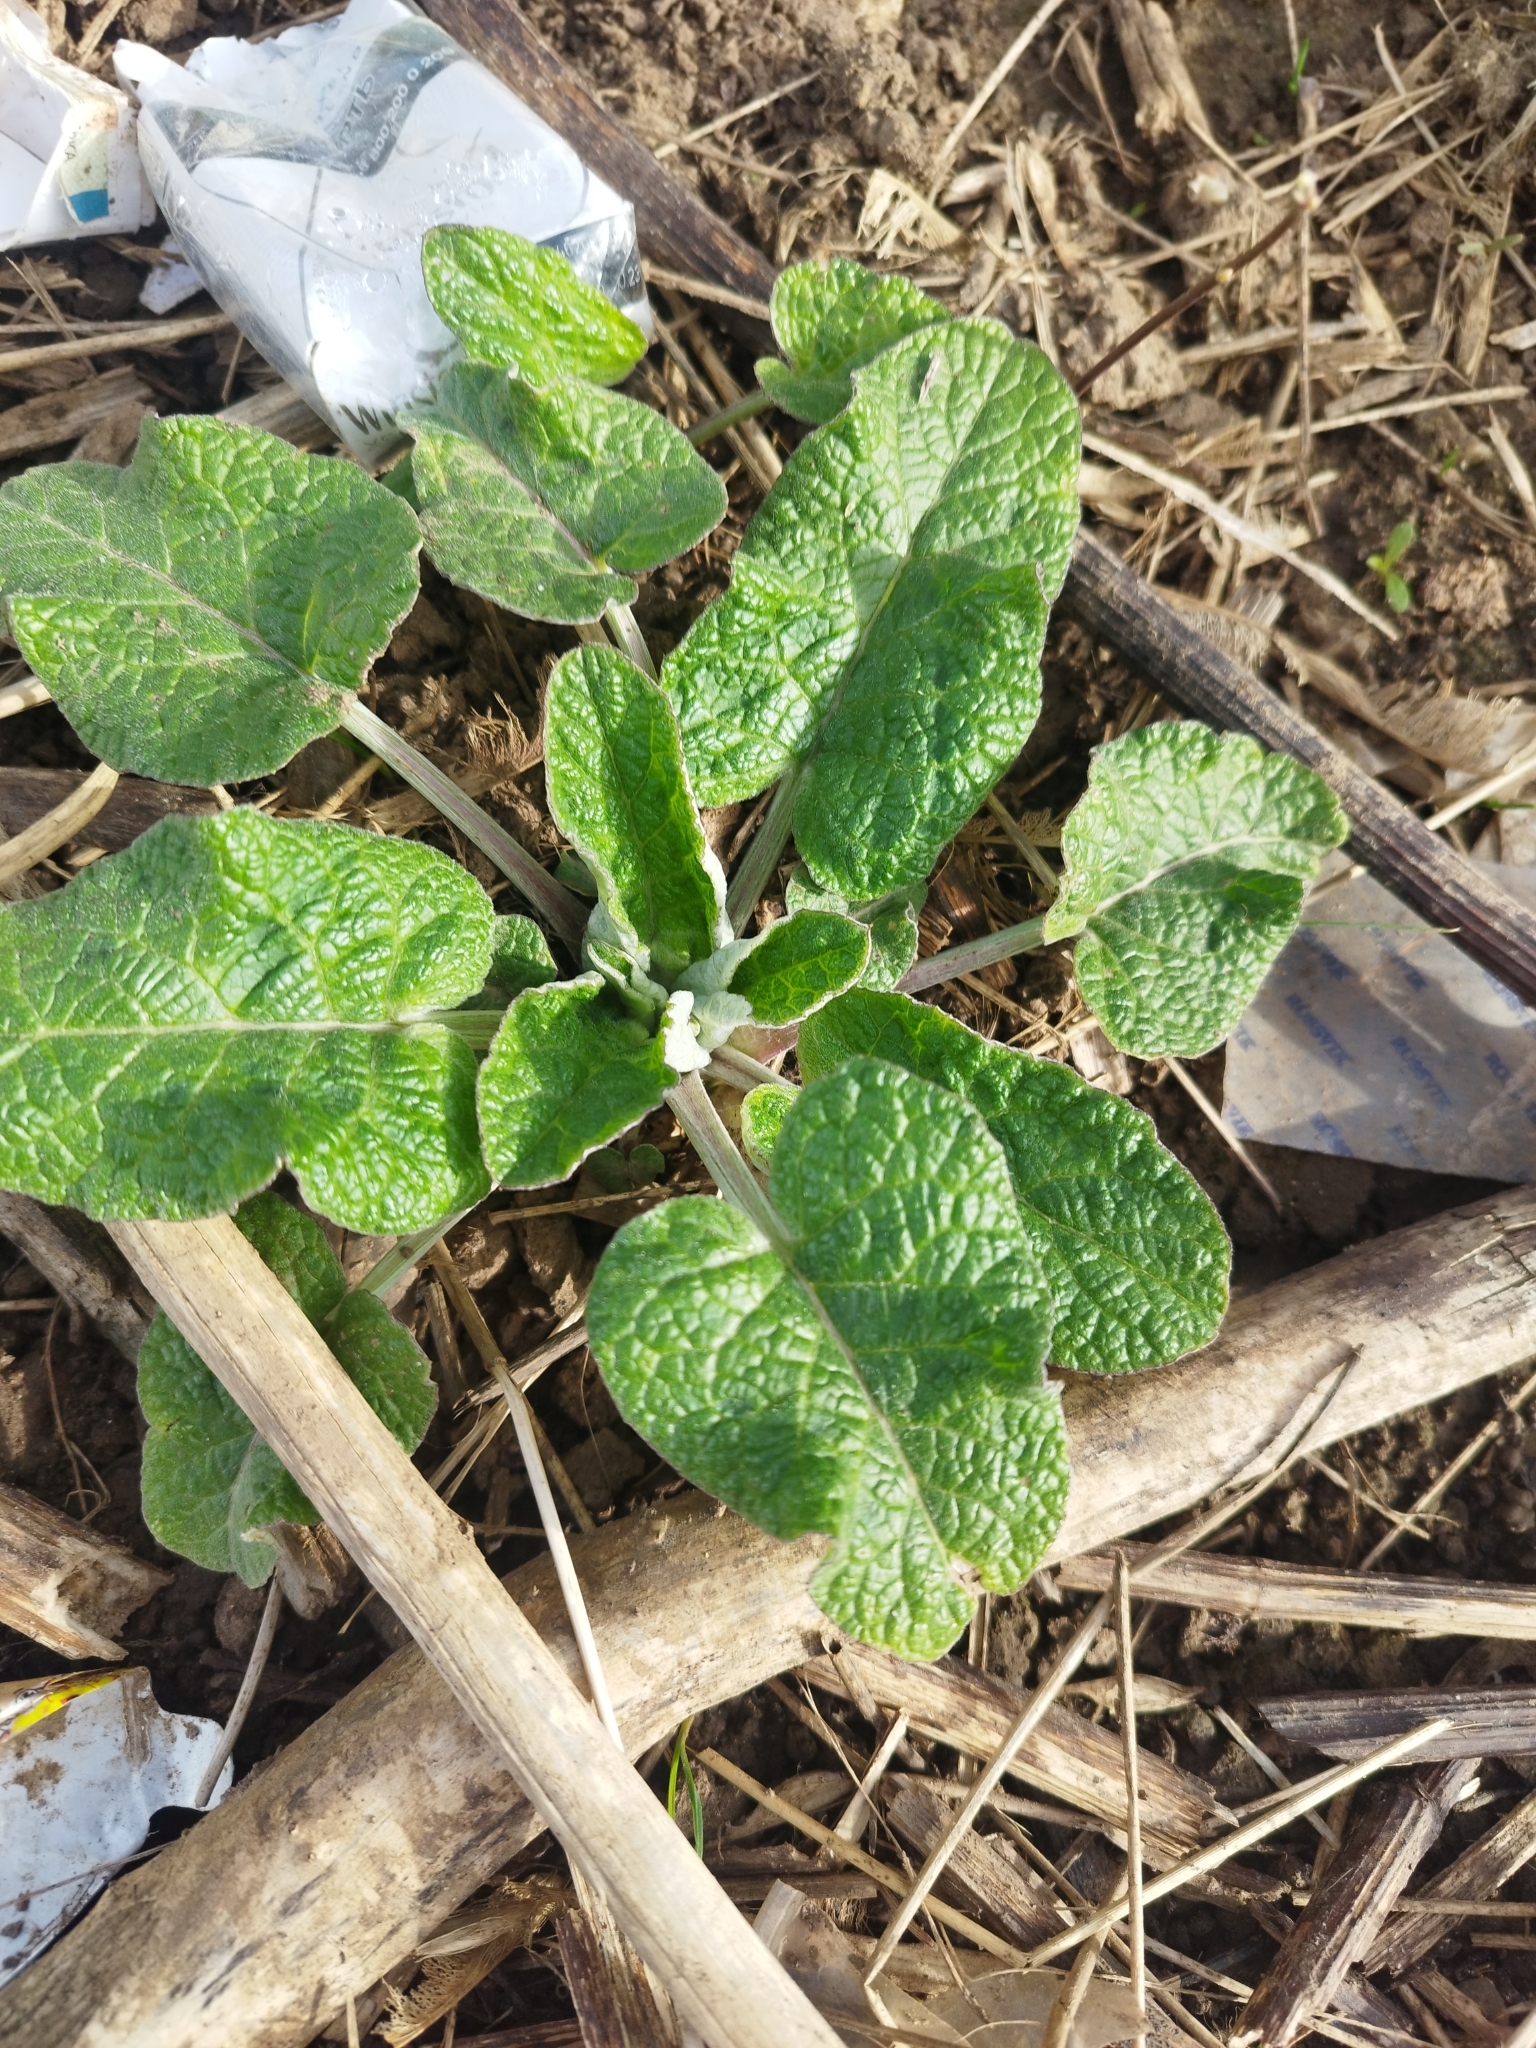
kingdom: Plantae
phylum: Tracheophyta
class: Magnoliopsida
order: Asterales
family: Asteraceae
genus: Arctium
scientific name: Arctium tomentosum
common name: Woolly burdock
